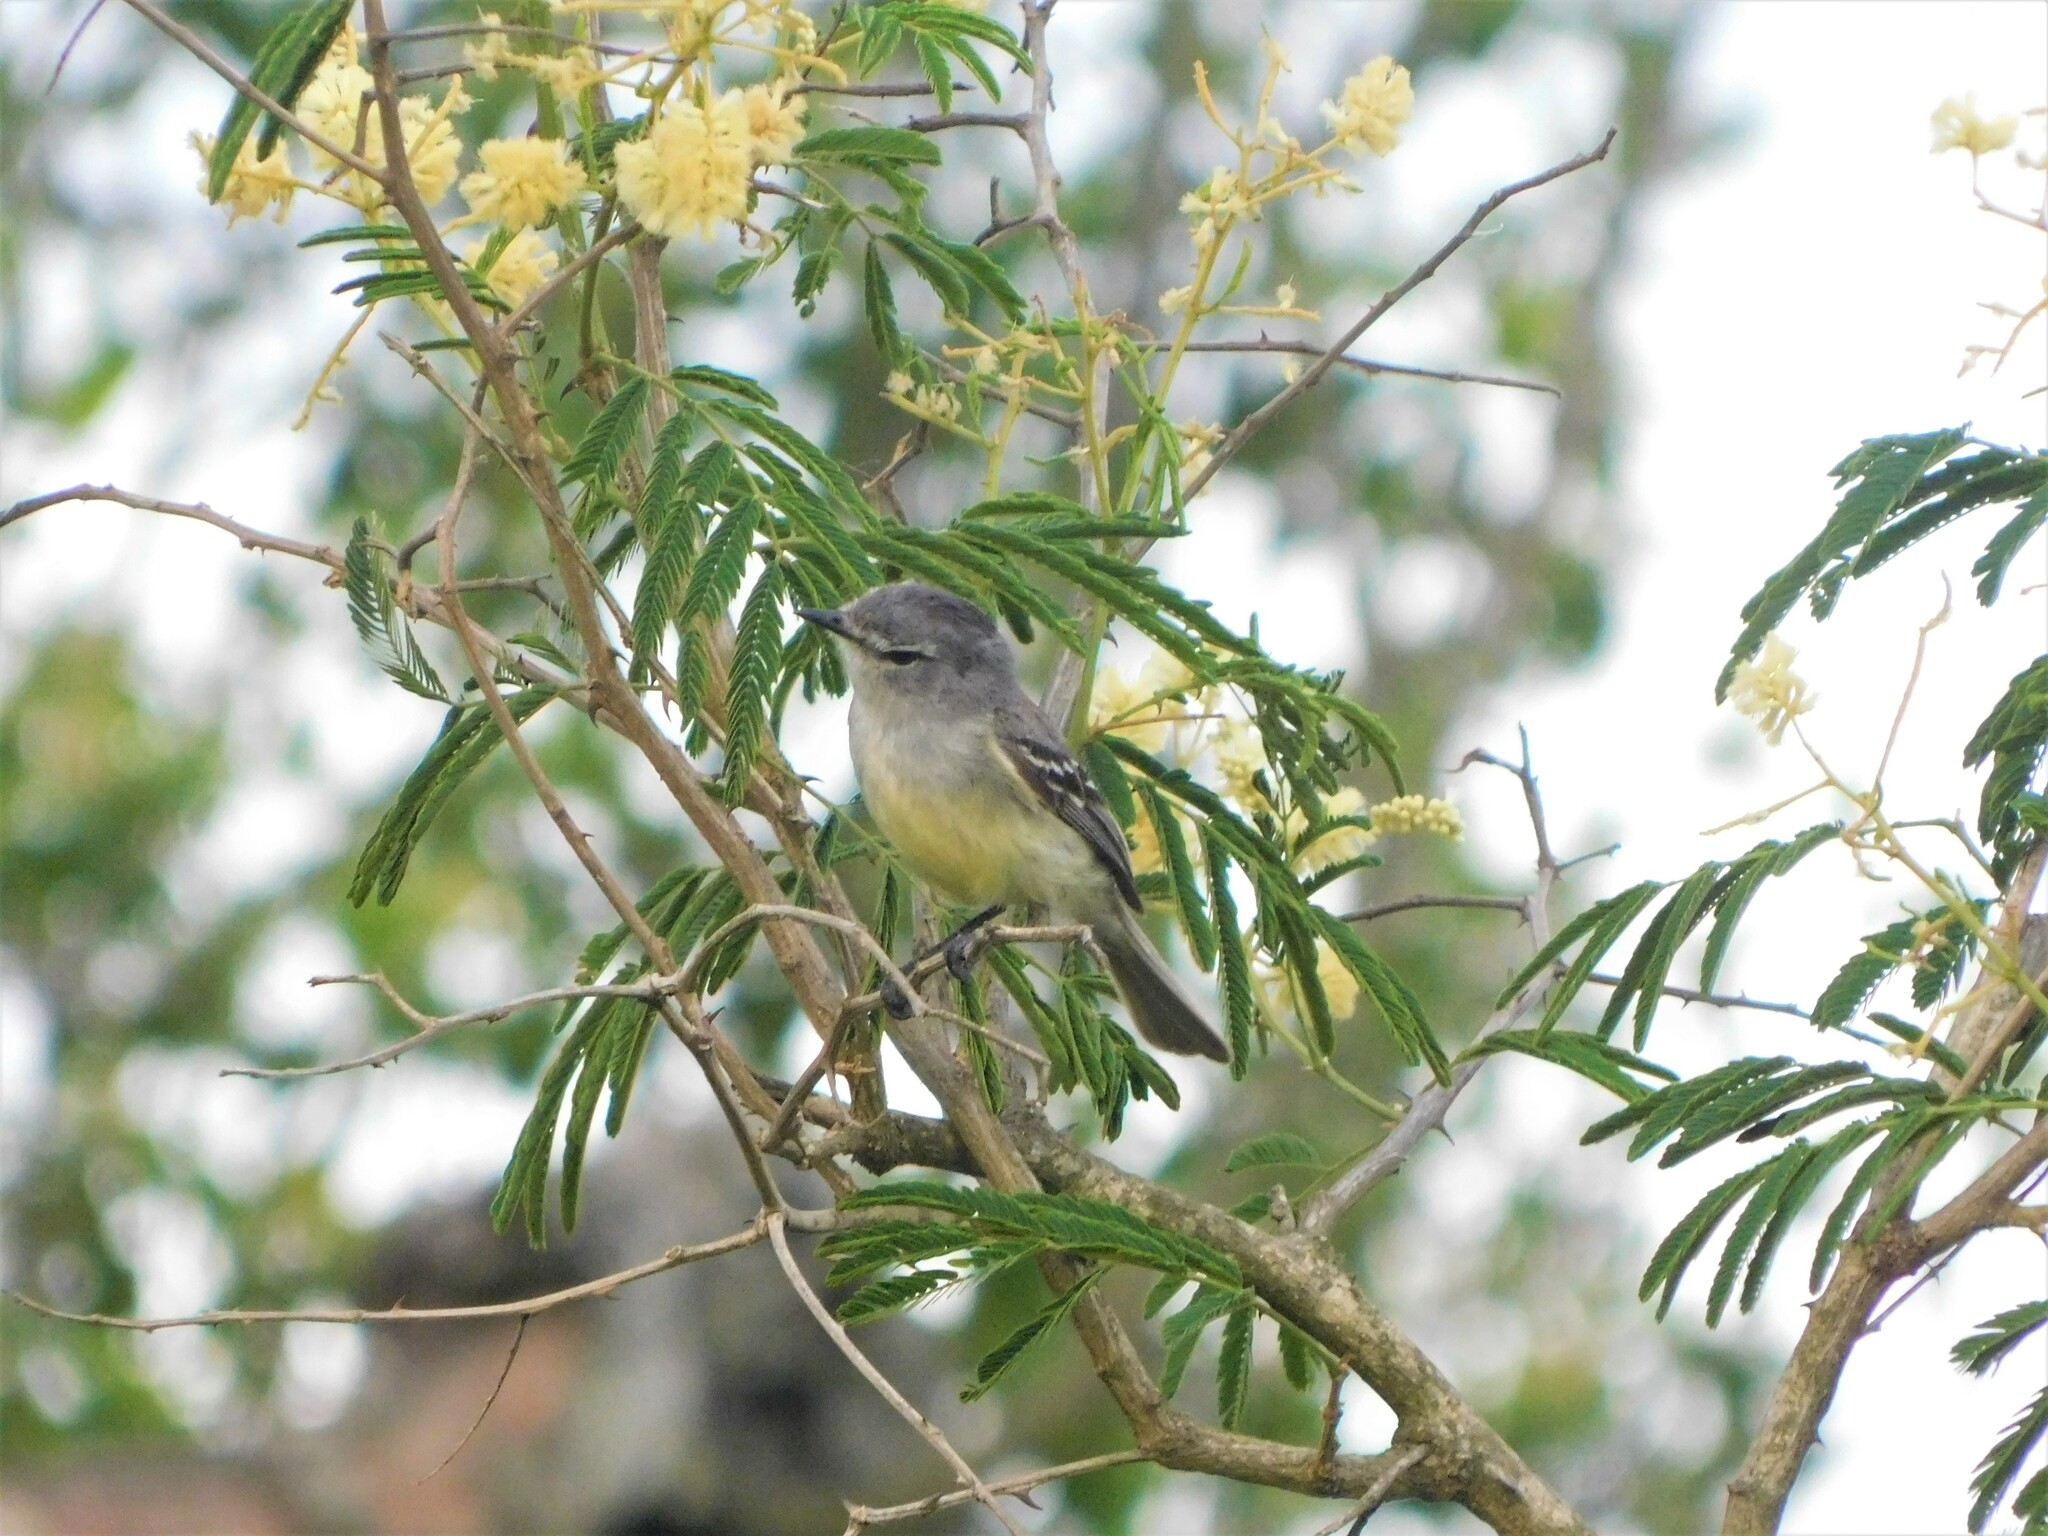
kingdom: Animalia
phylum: Chordata
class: Aves
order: Passeriformes
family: Tyrannidae
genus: Serpophaga
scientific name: Serpophaga subcristata
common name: White-crested tyrannulet
